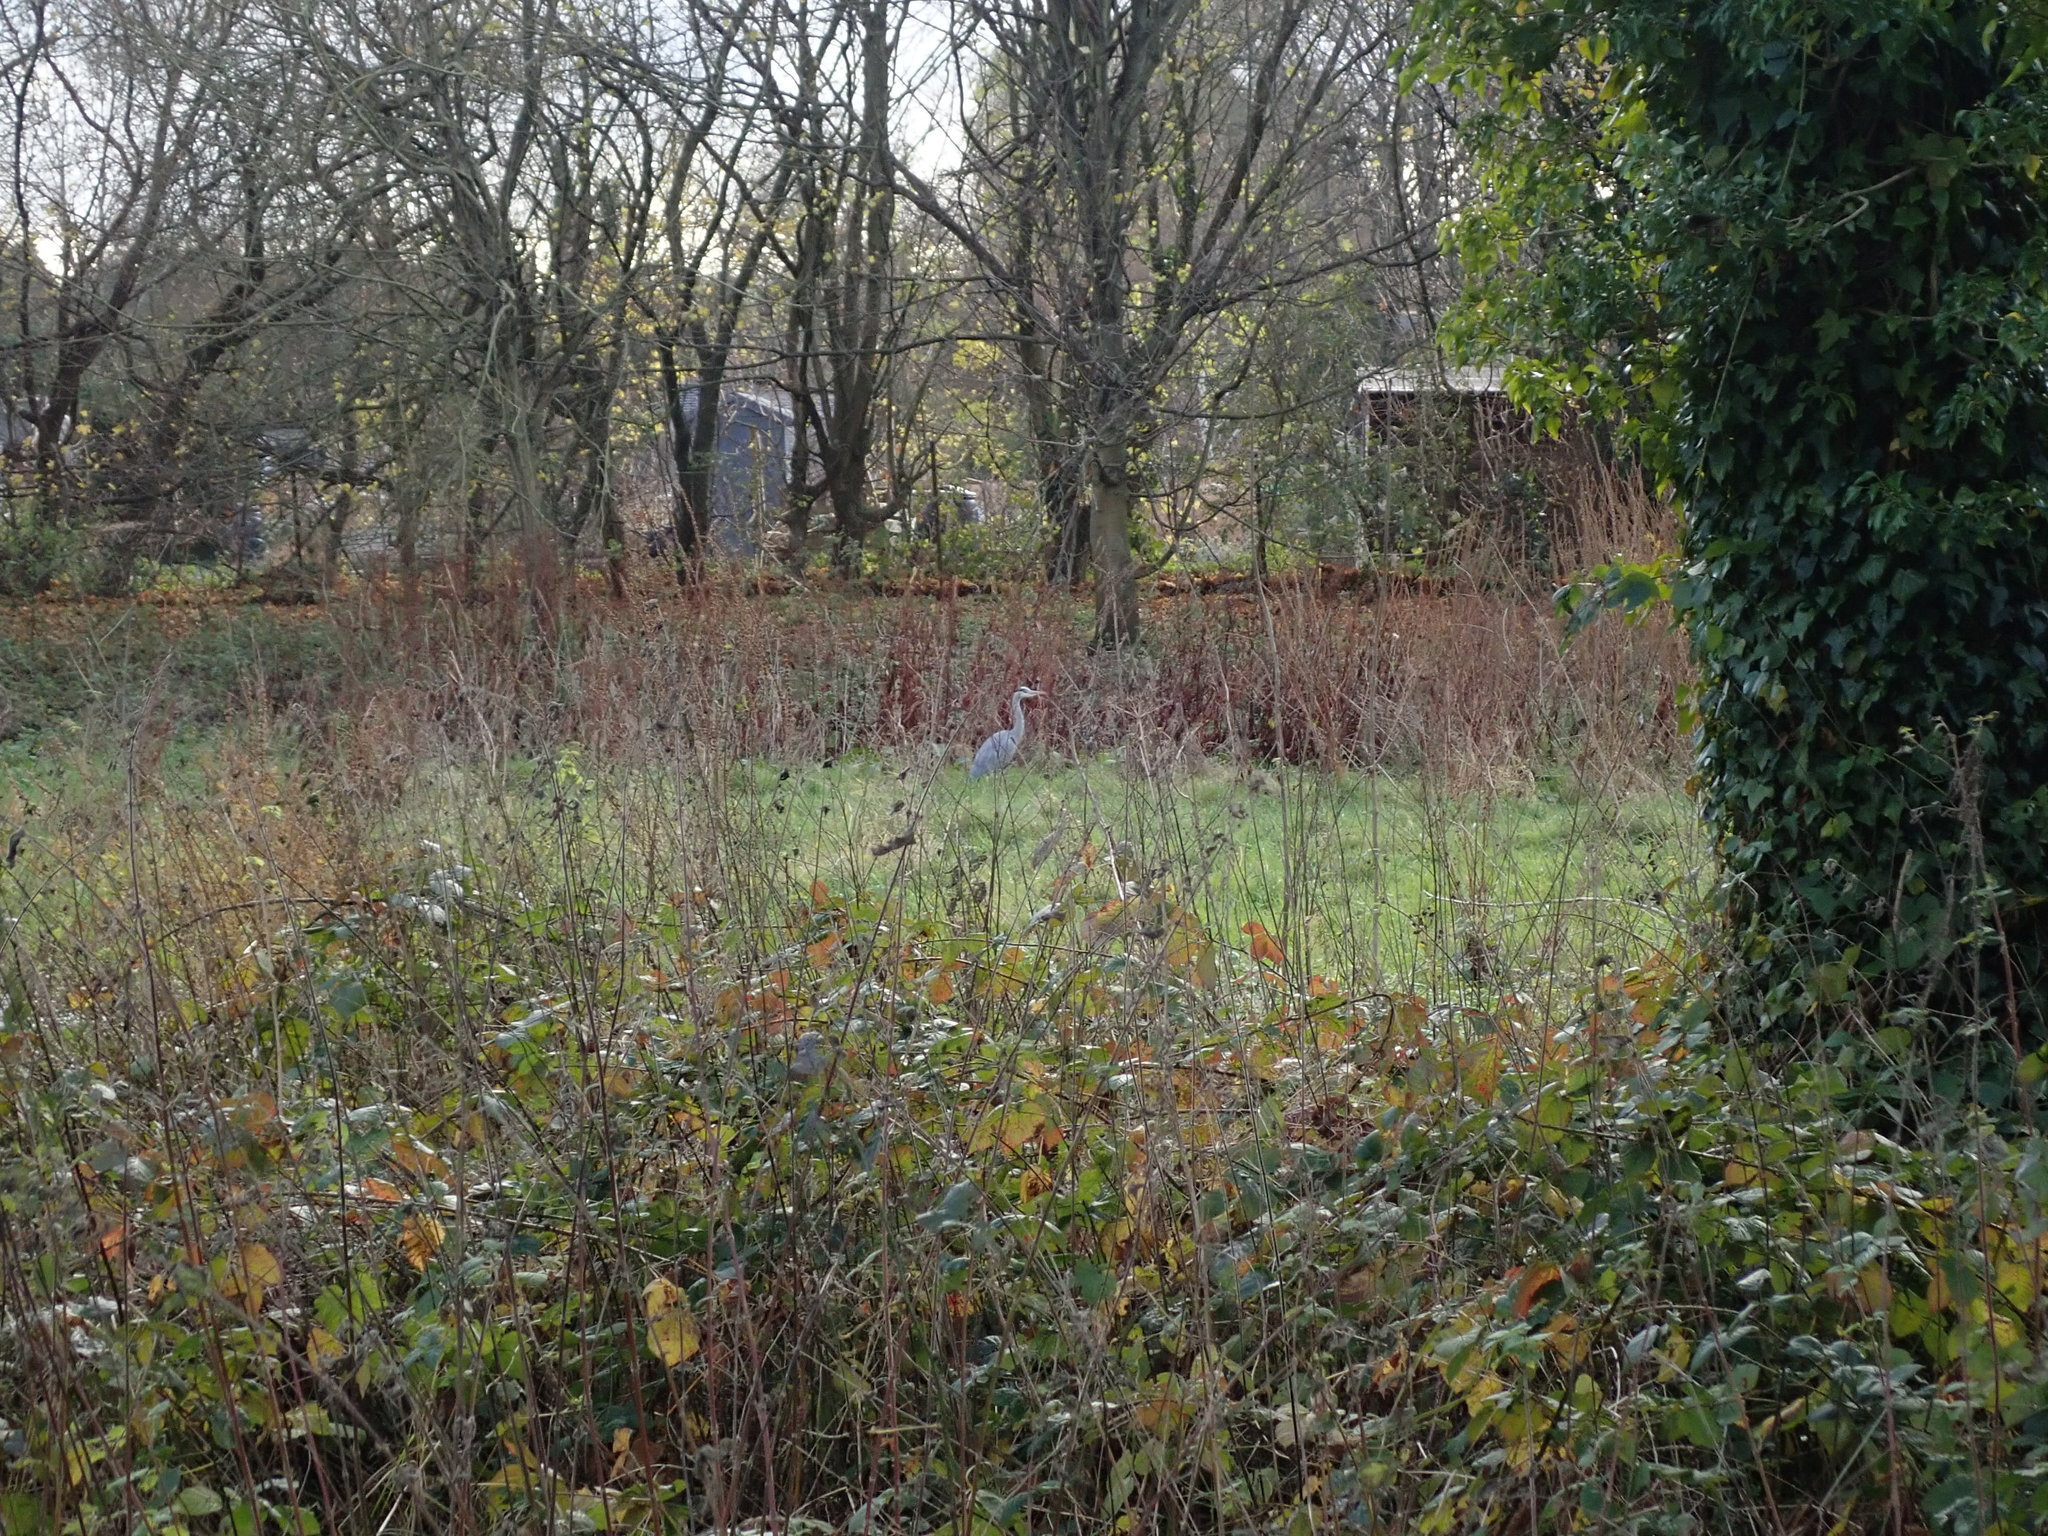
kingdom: Animalia
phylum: Chordata
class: Aves
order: Pelecaniformes
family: Ardeidae
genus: Ardea
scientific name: Ardea cinerea
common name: Grey heron
